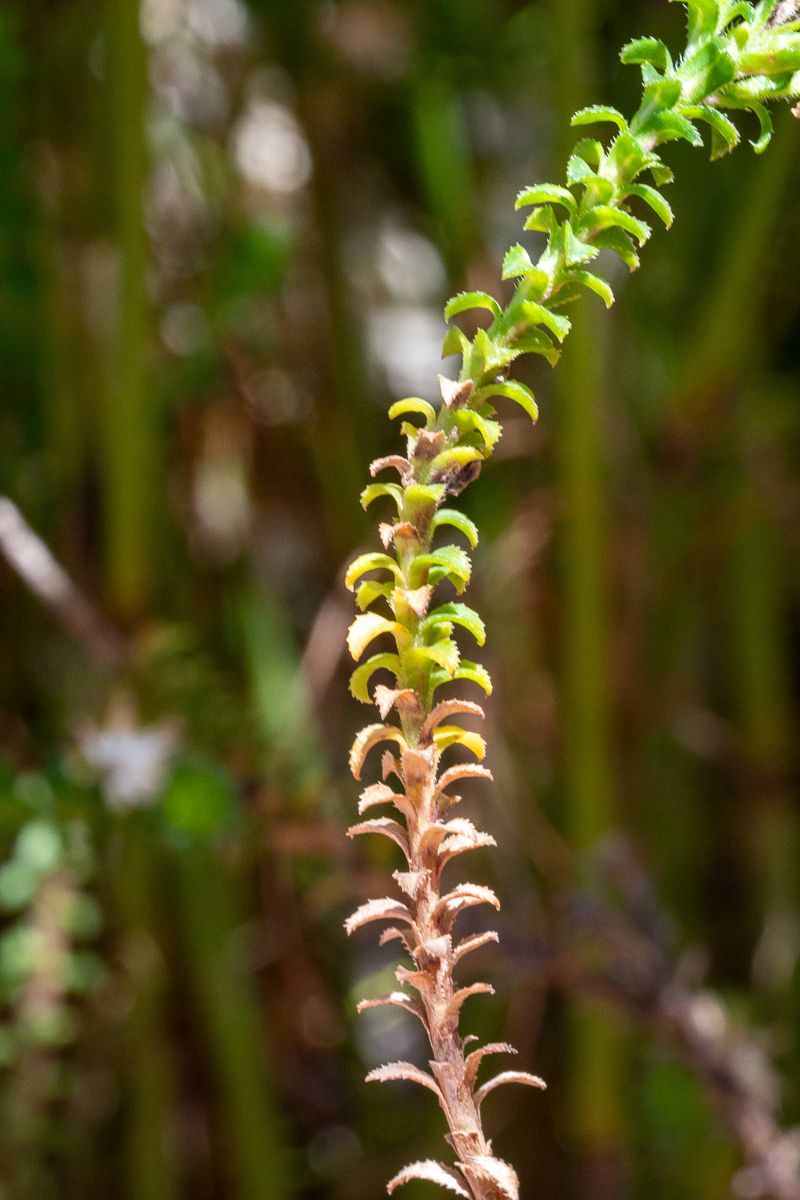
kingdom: Plantae
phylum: Tracheophyta
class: Magnoliopsida
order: Asterales
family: Asteraceae
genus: Polyarrhena
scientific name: Polyarrhena reflexa
